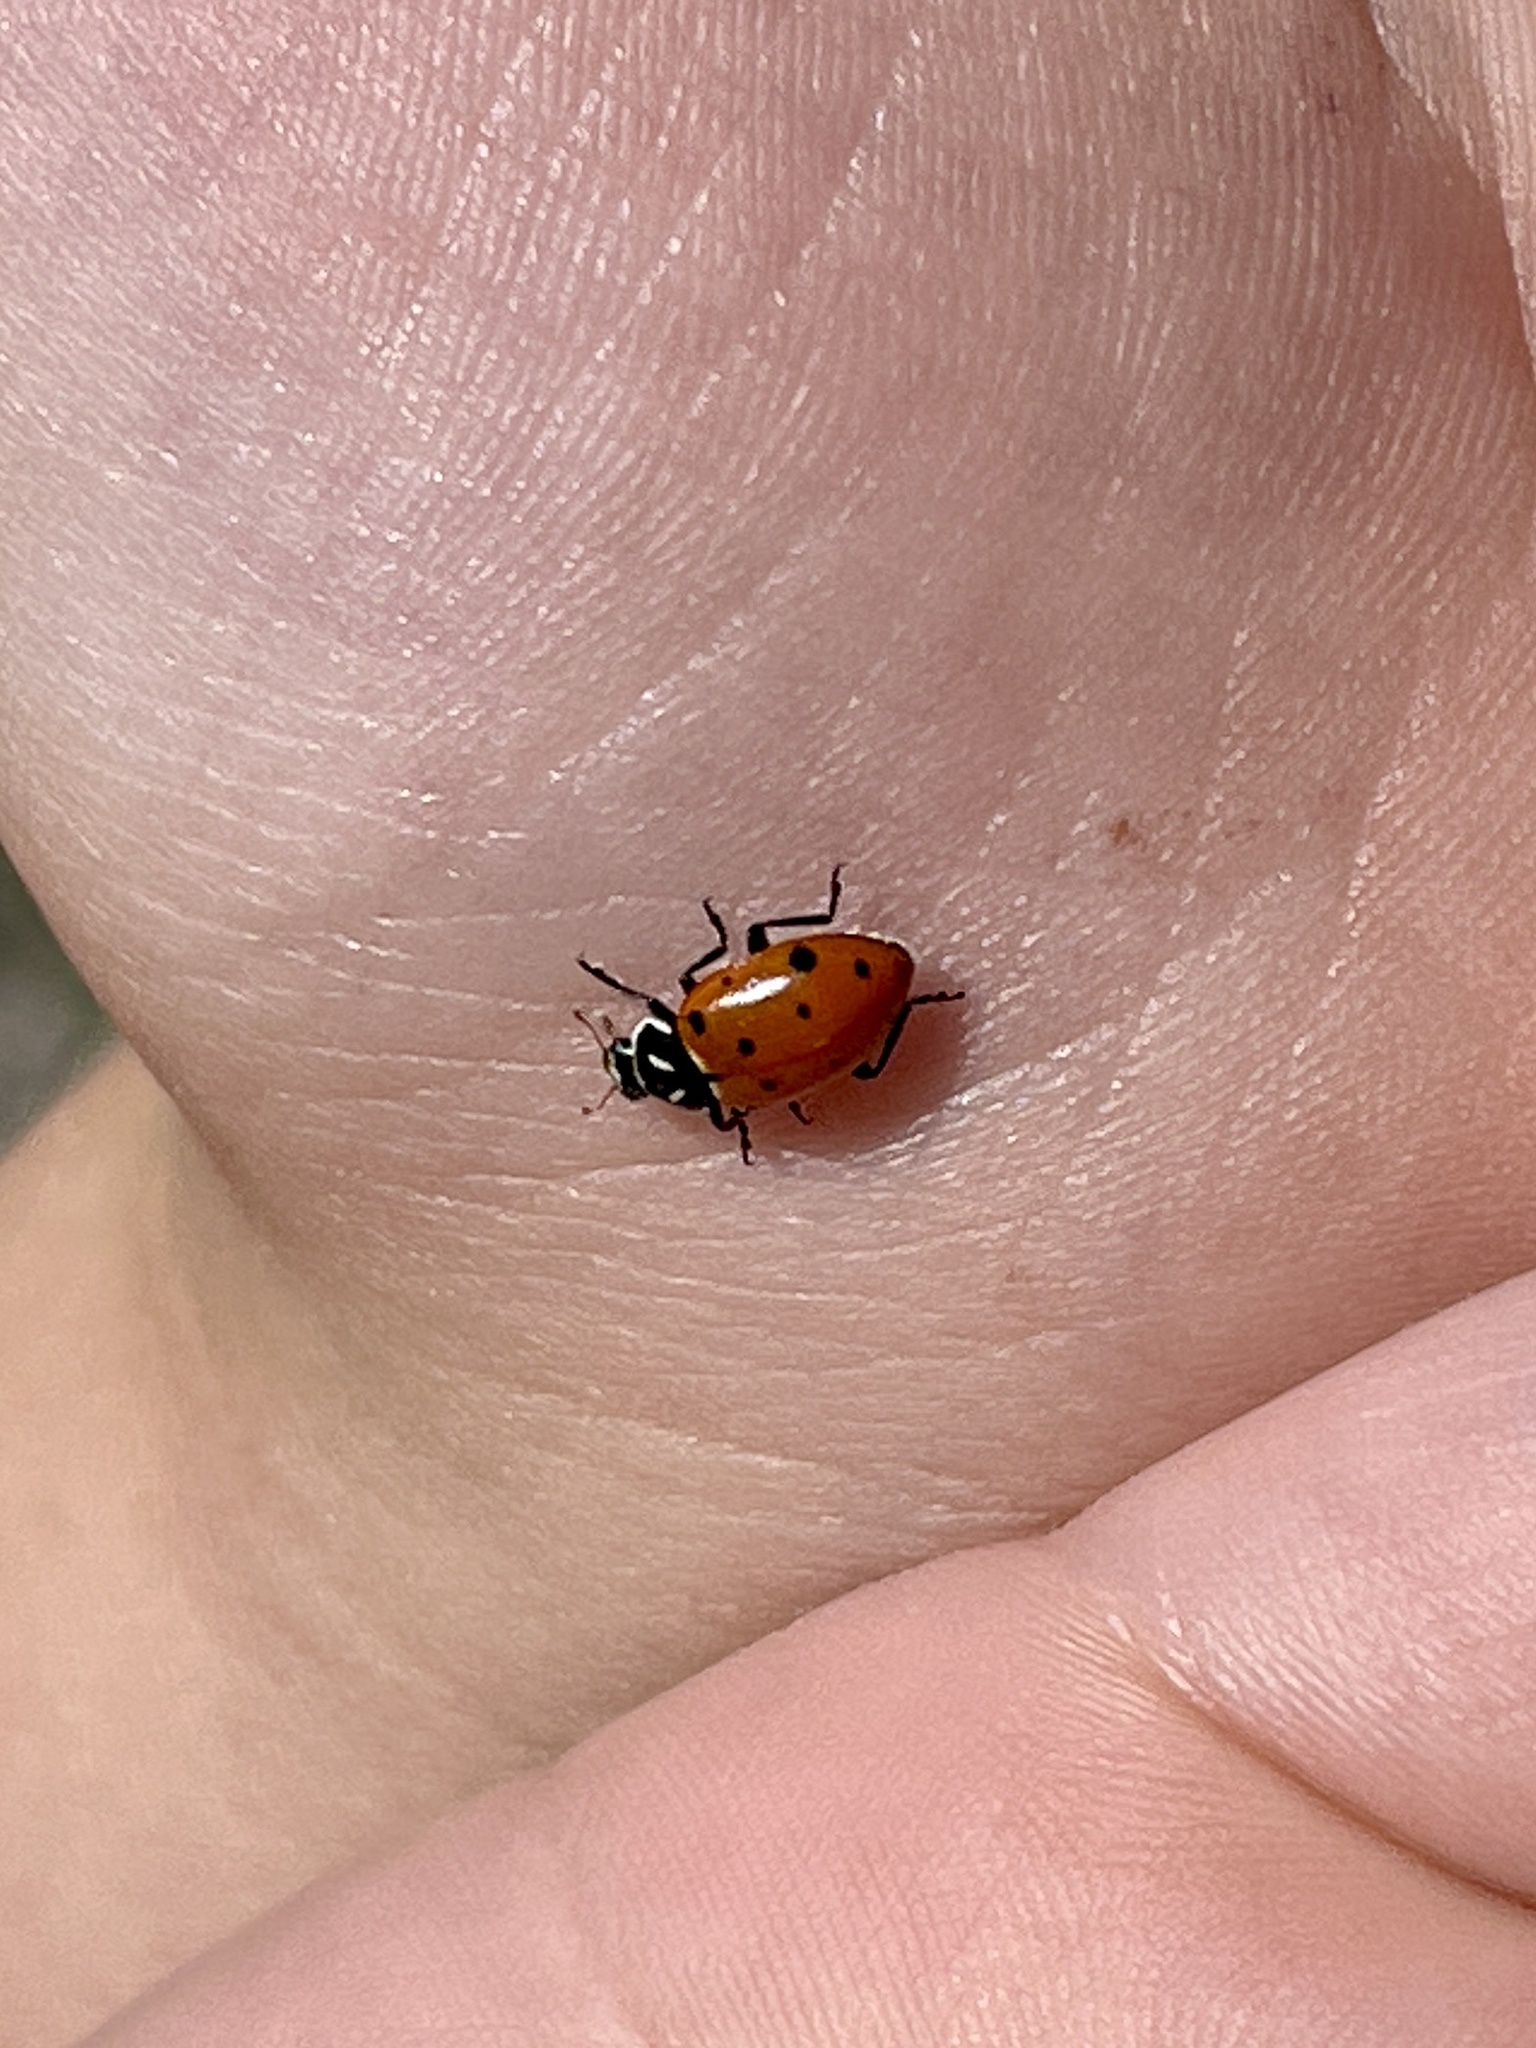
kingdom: Animalia
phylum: Arthropoda
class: Insecta
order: Coleoptera
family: Coccinellidae
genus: Hippodamia
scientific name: Hippodamia convergens
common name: Convergent lady beetle
